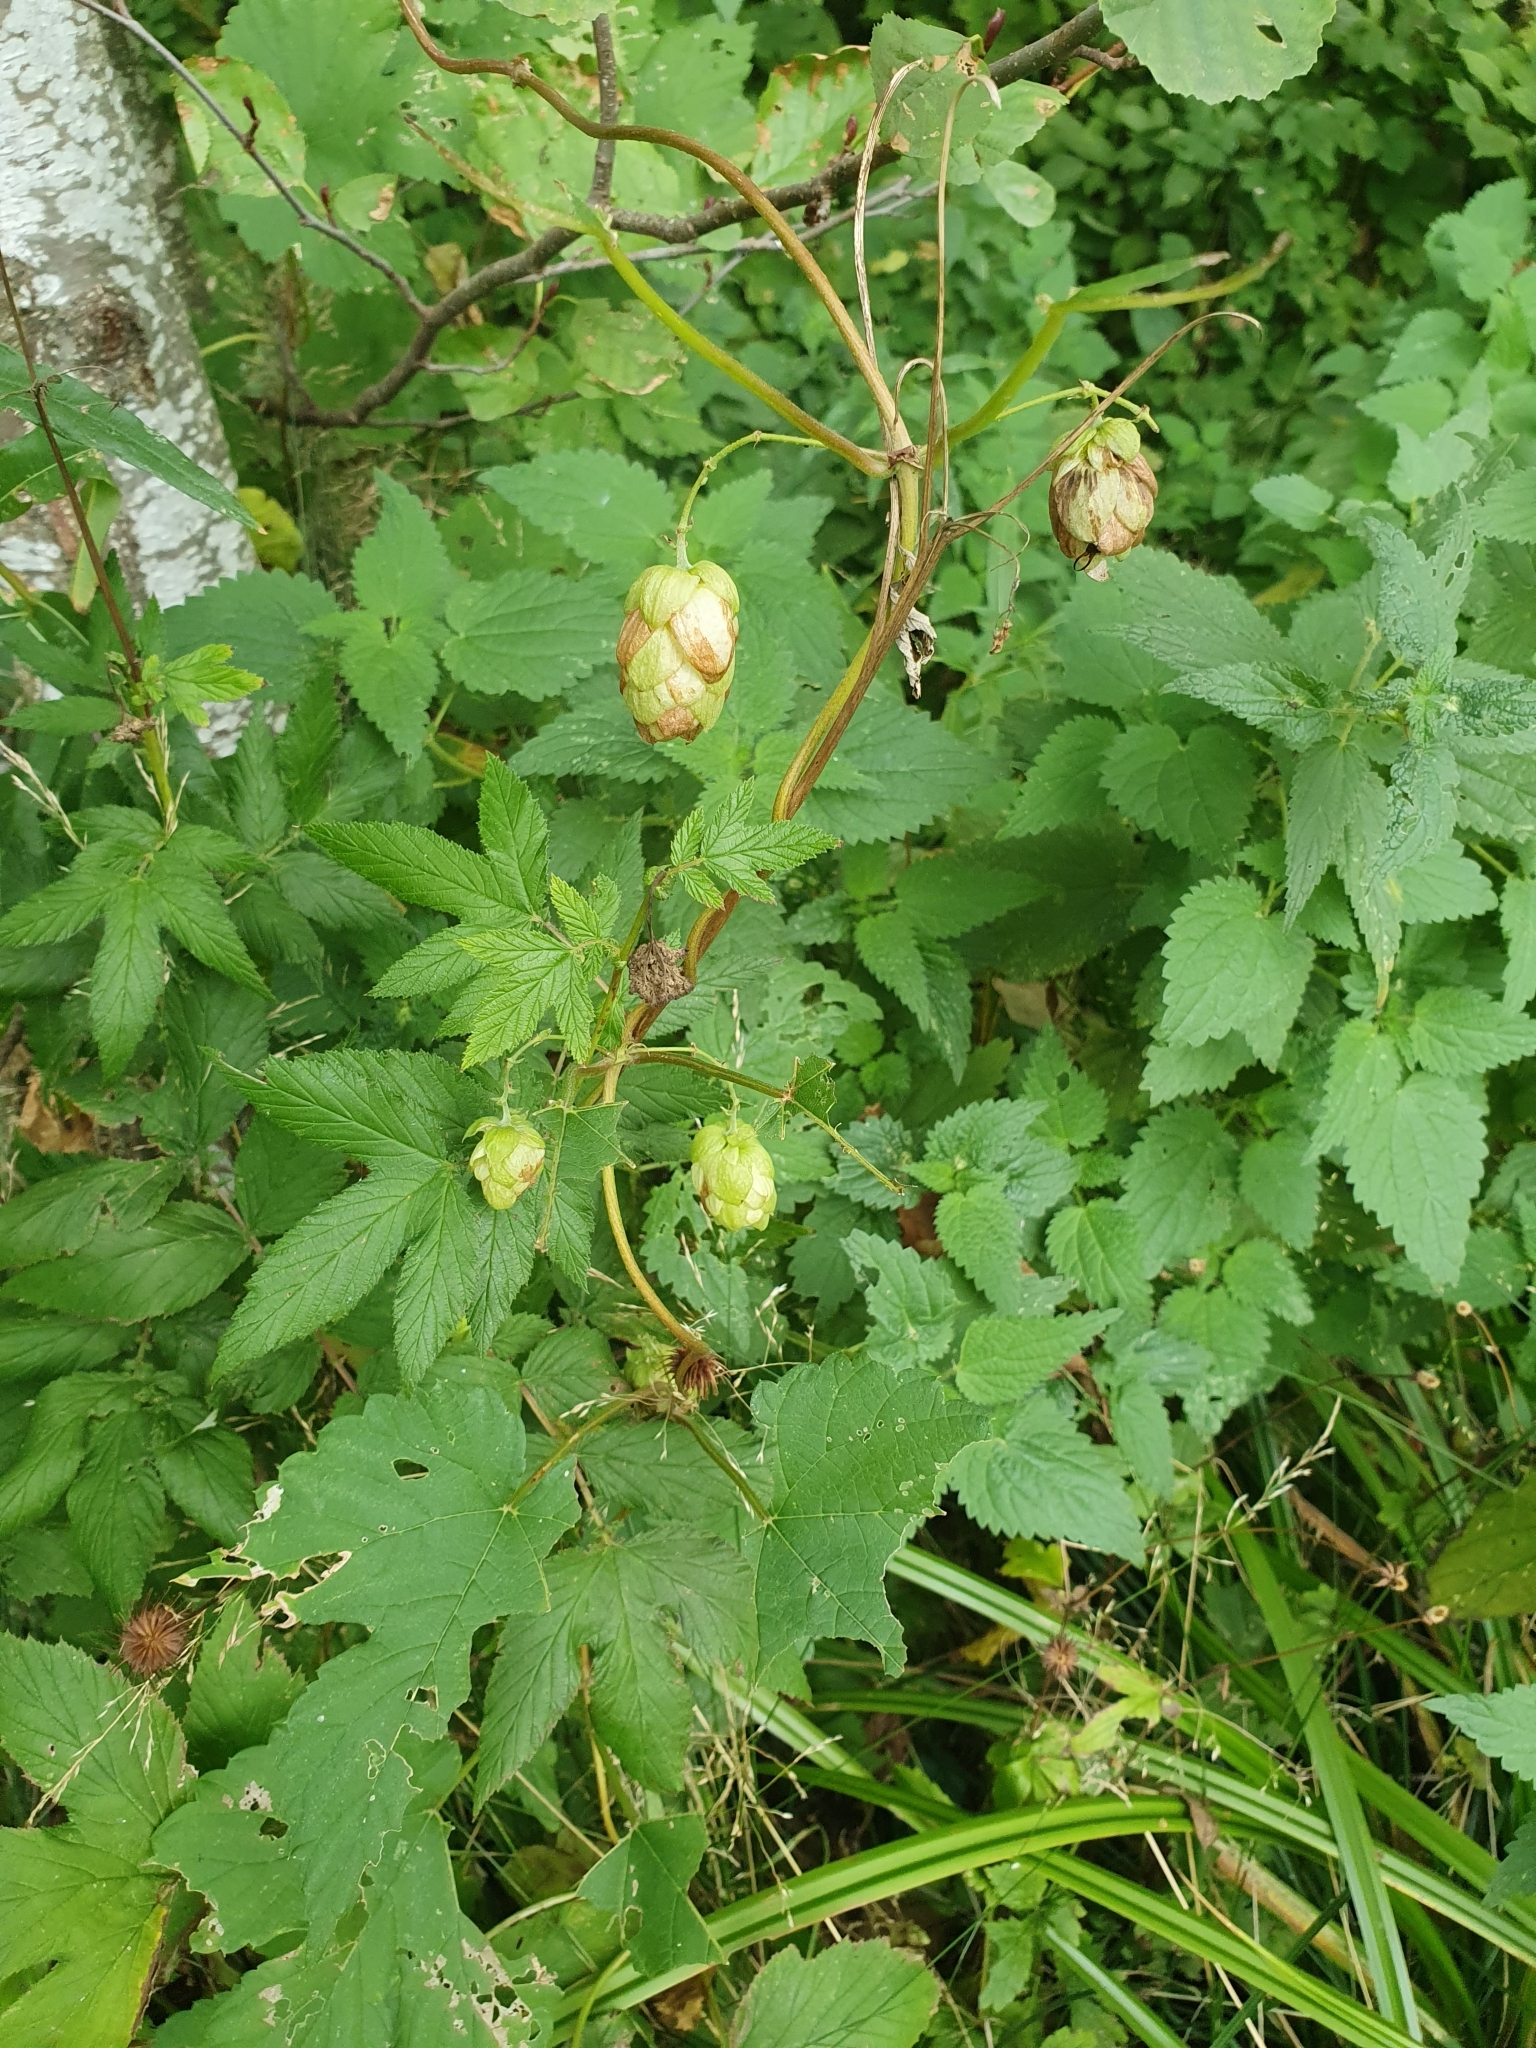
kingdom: Plantae
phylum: Tracheophyta
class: Magnoliopsida
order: Rosales
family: Cannabaceae
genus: Humulus
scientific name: Humulus lupulus
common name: Hop
